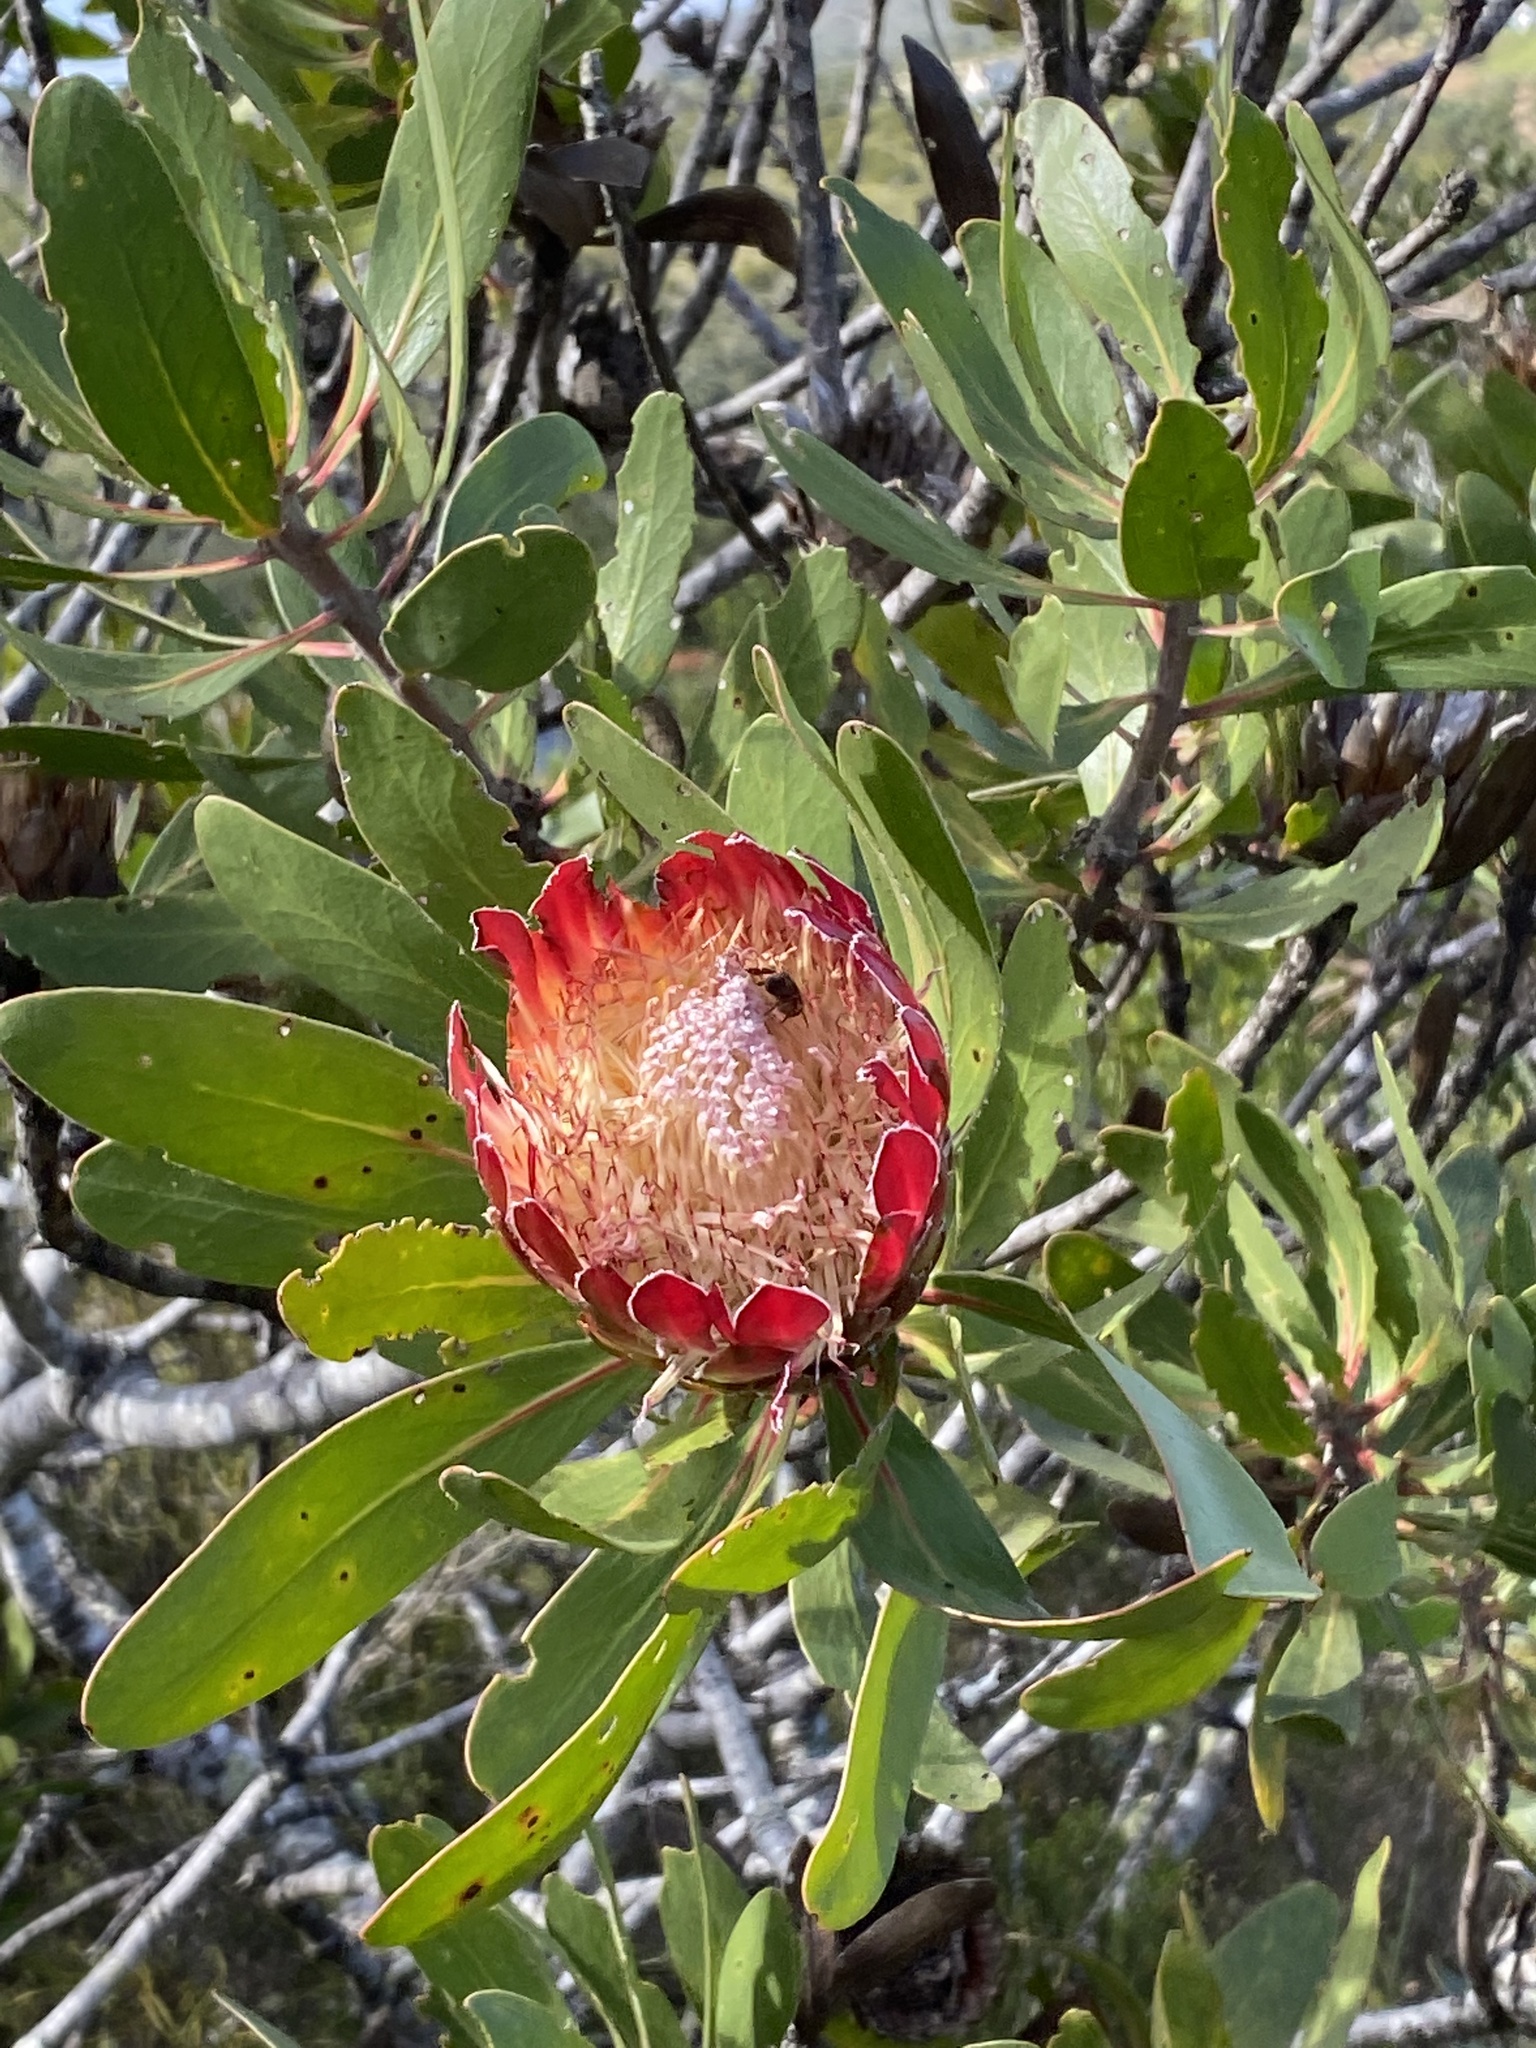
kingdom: Plantae
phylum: Tracheophyta
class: Magnoliopsida
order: Proteales
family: Proteaceae
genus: Protea
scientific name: Protea obtusifolia
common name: Bredasdorp sugarbush
